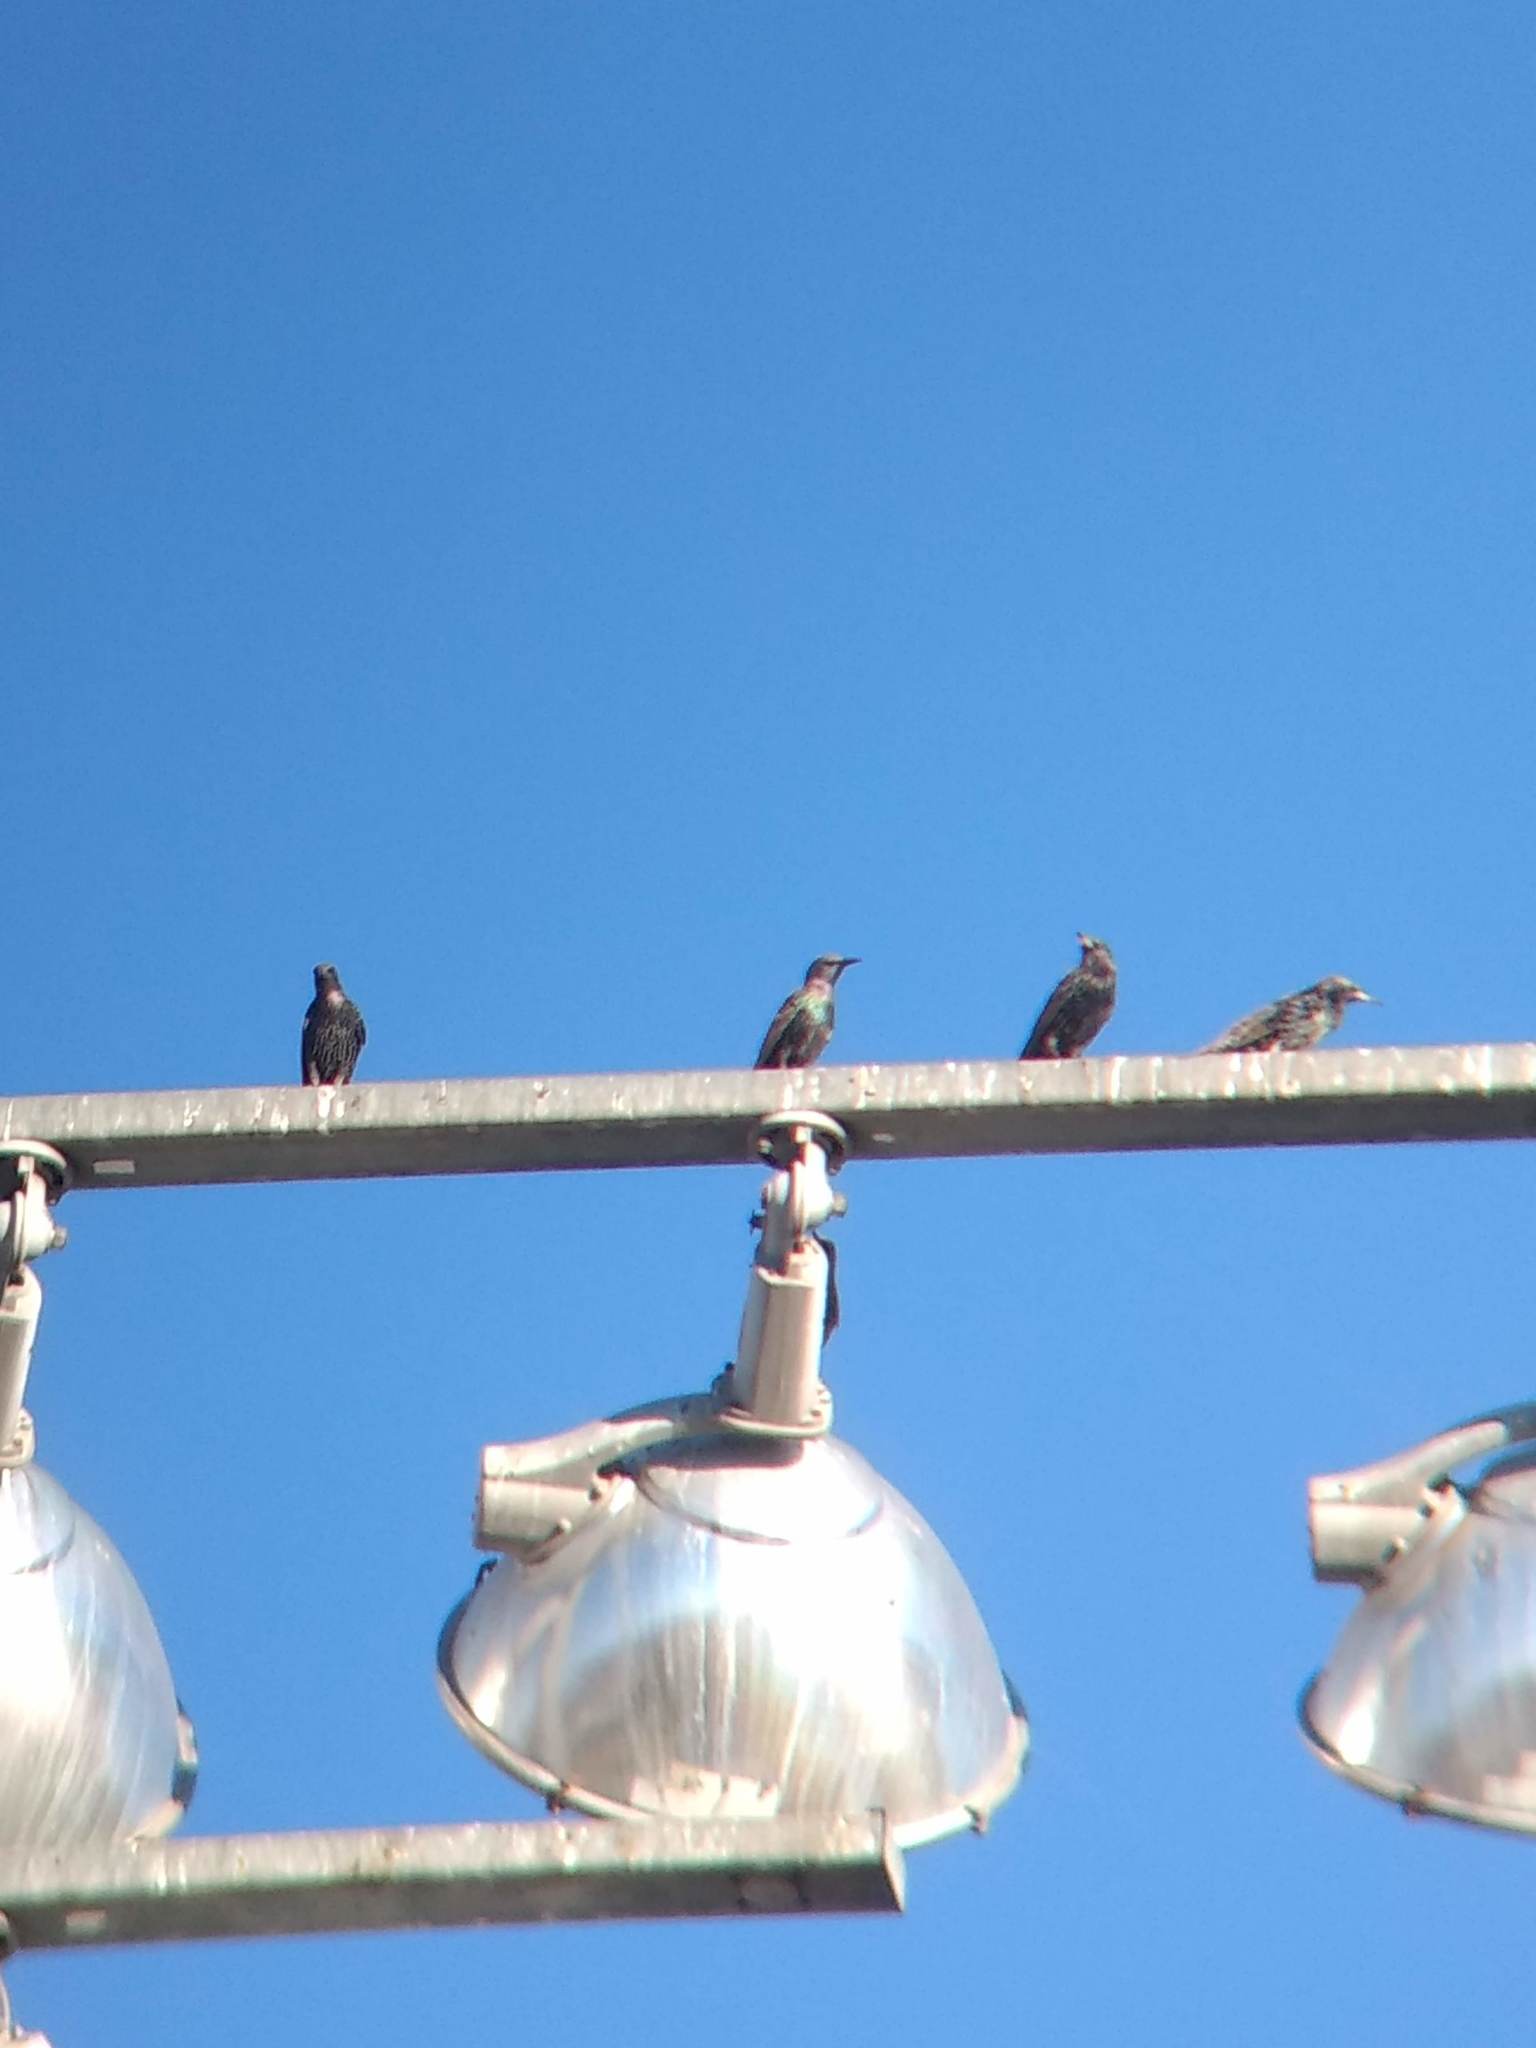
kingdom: Animalia
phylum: Chordata
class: Aves
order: Passeriformes
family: Sturnidae
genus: Sturnus
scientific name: Sturnus vulgaris
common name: Common starling
